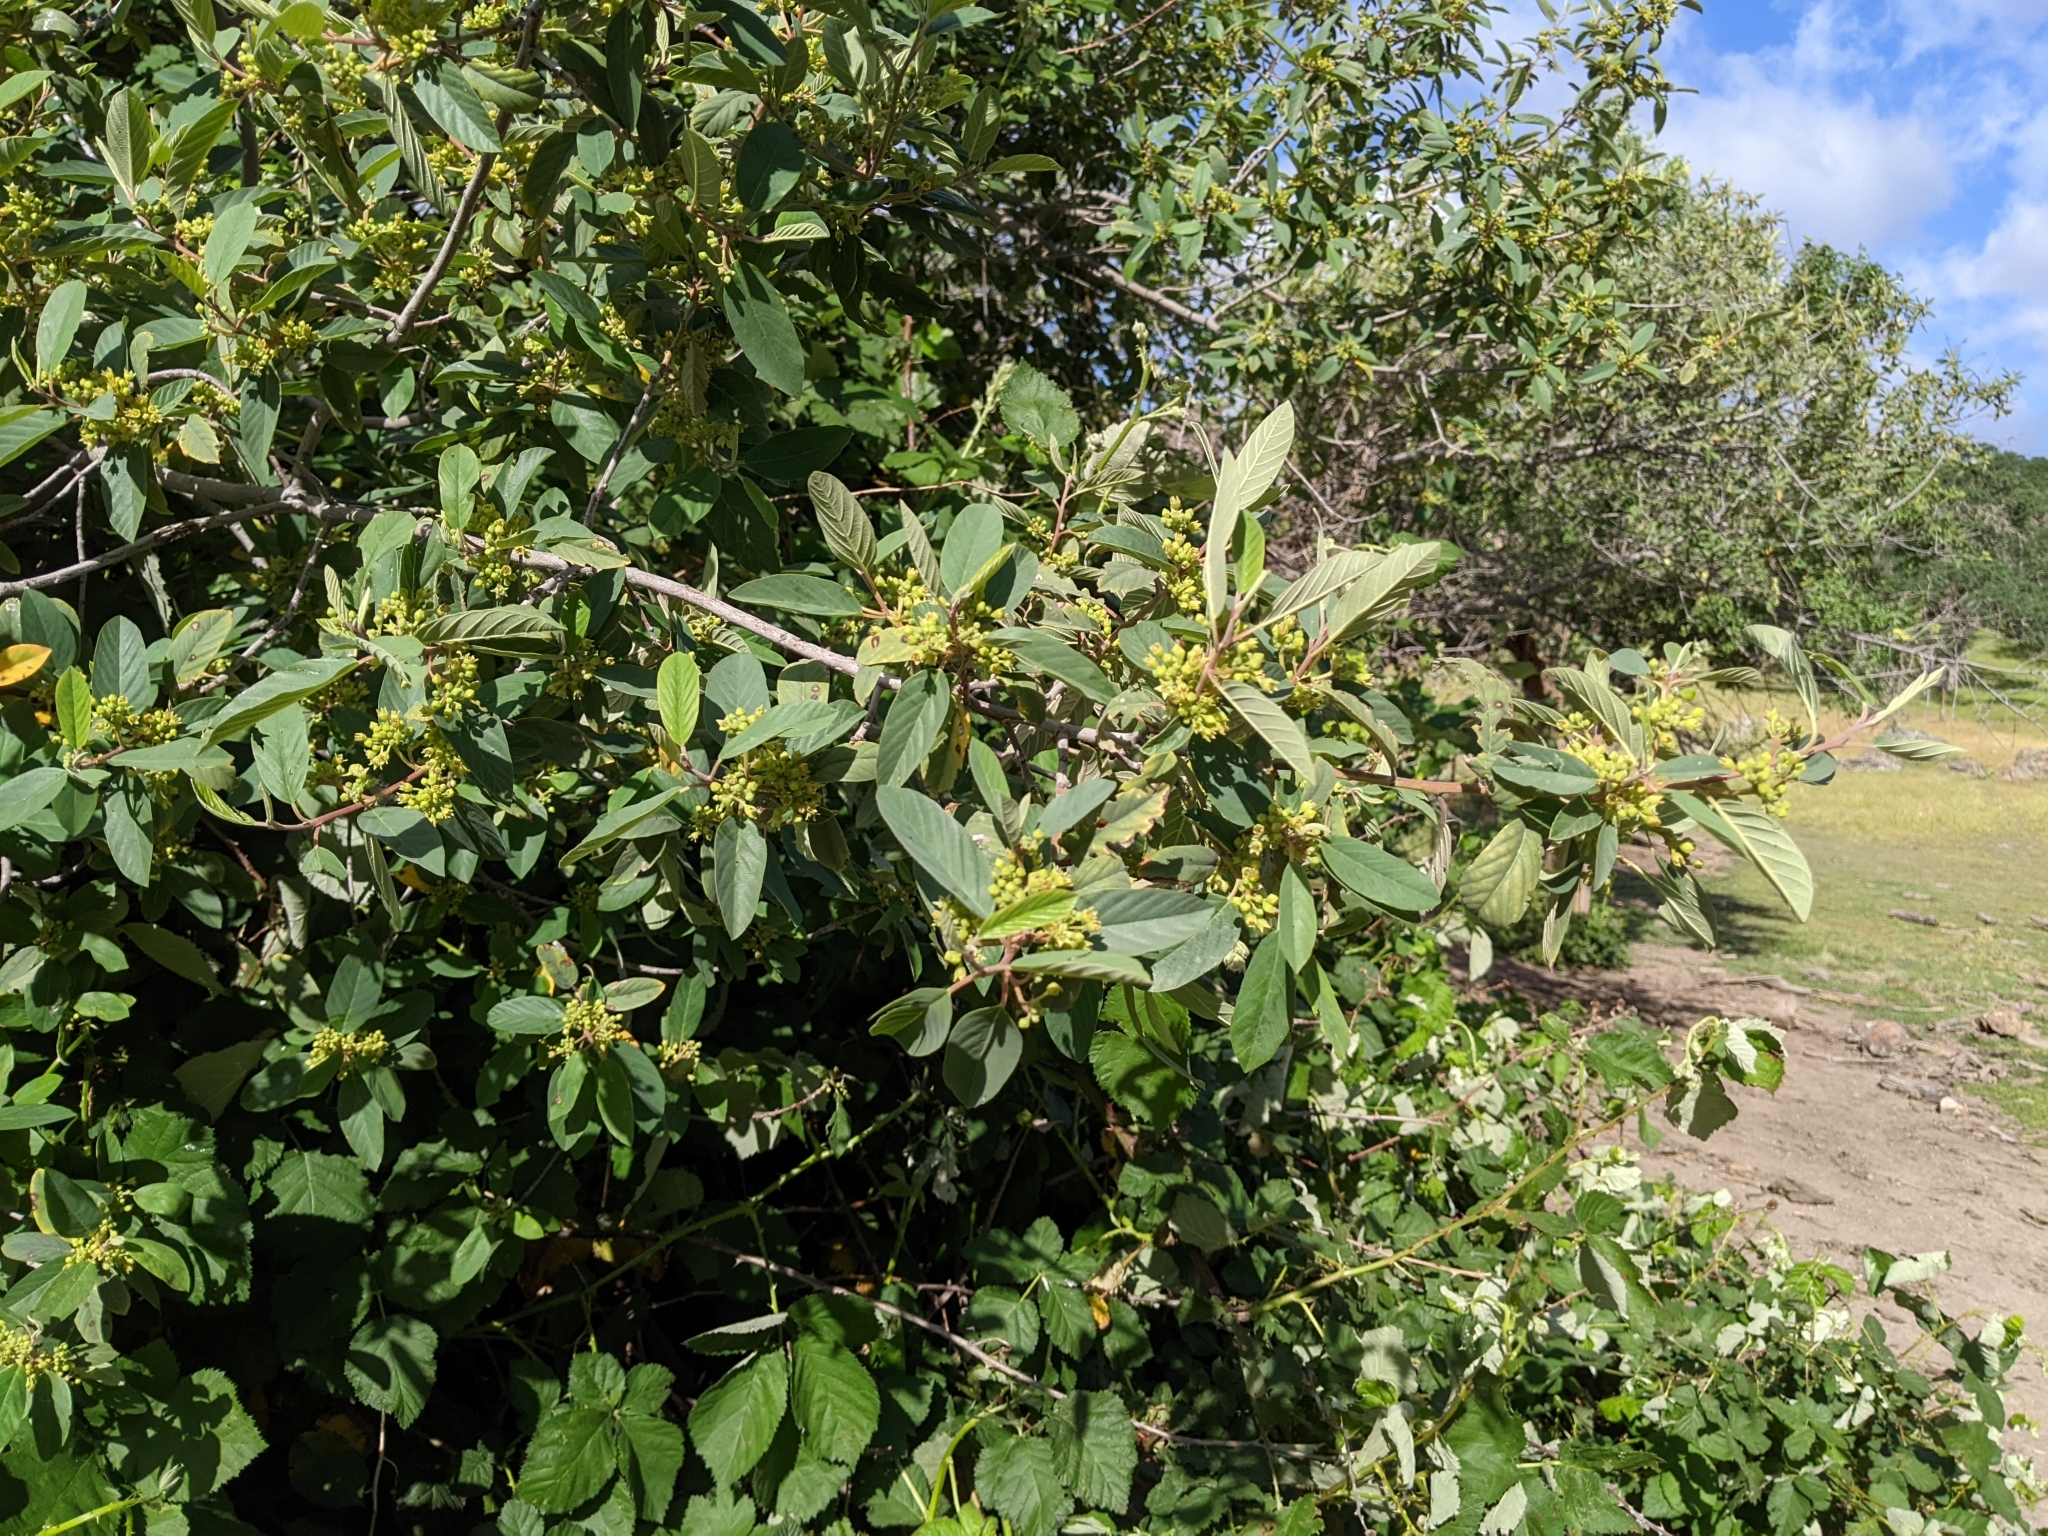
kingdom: Plantae
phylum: Tracheophyta
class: Magnoliopsida
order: Rosales
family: Rhamnaceae
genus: Frangula
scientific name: Frangula californica
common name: California buckthorn
